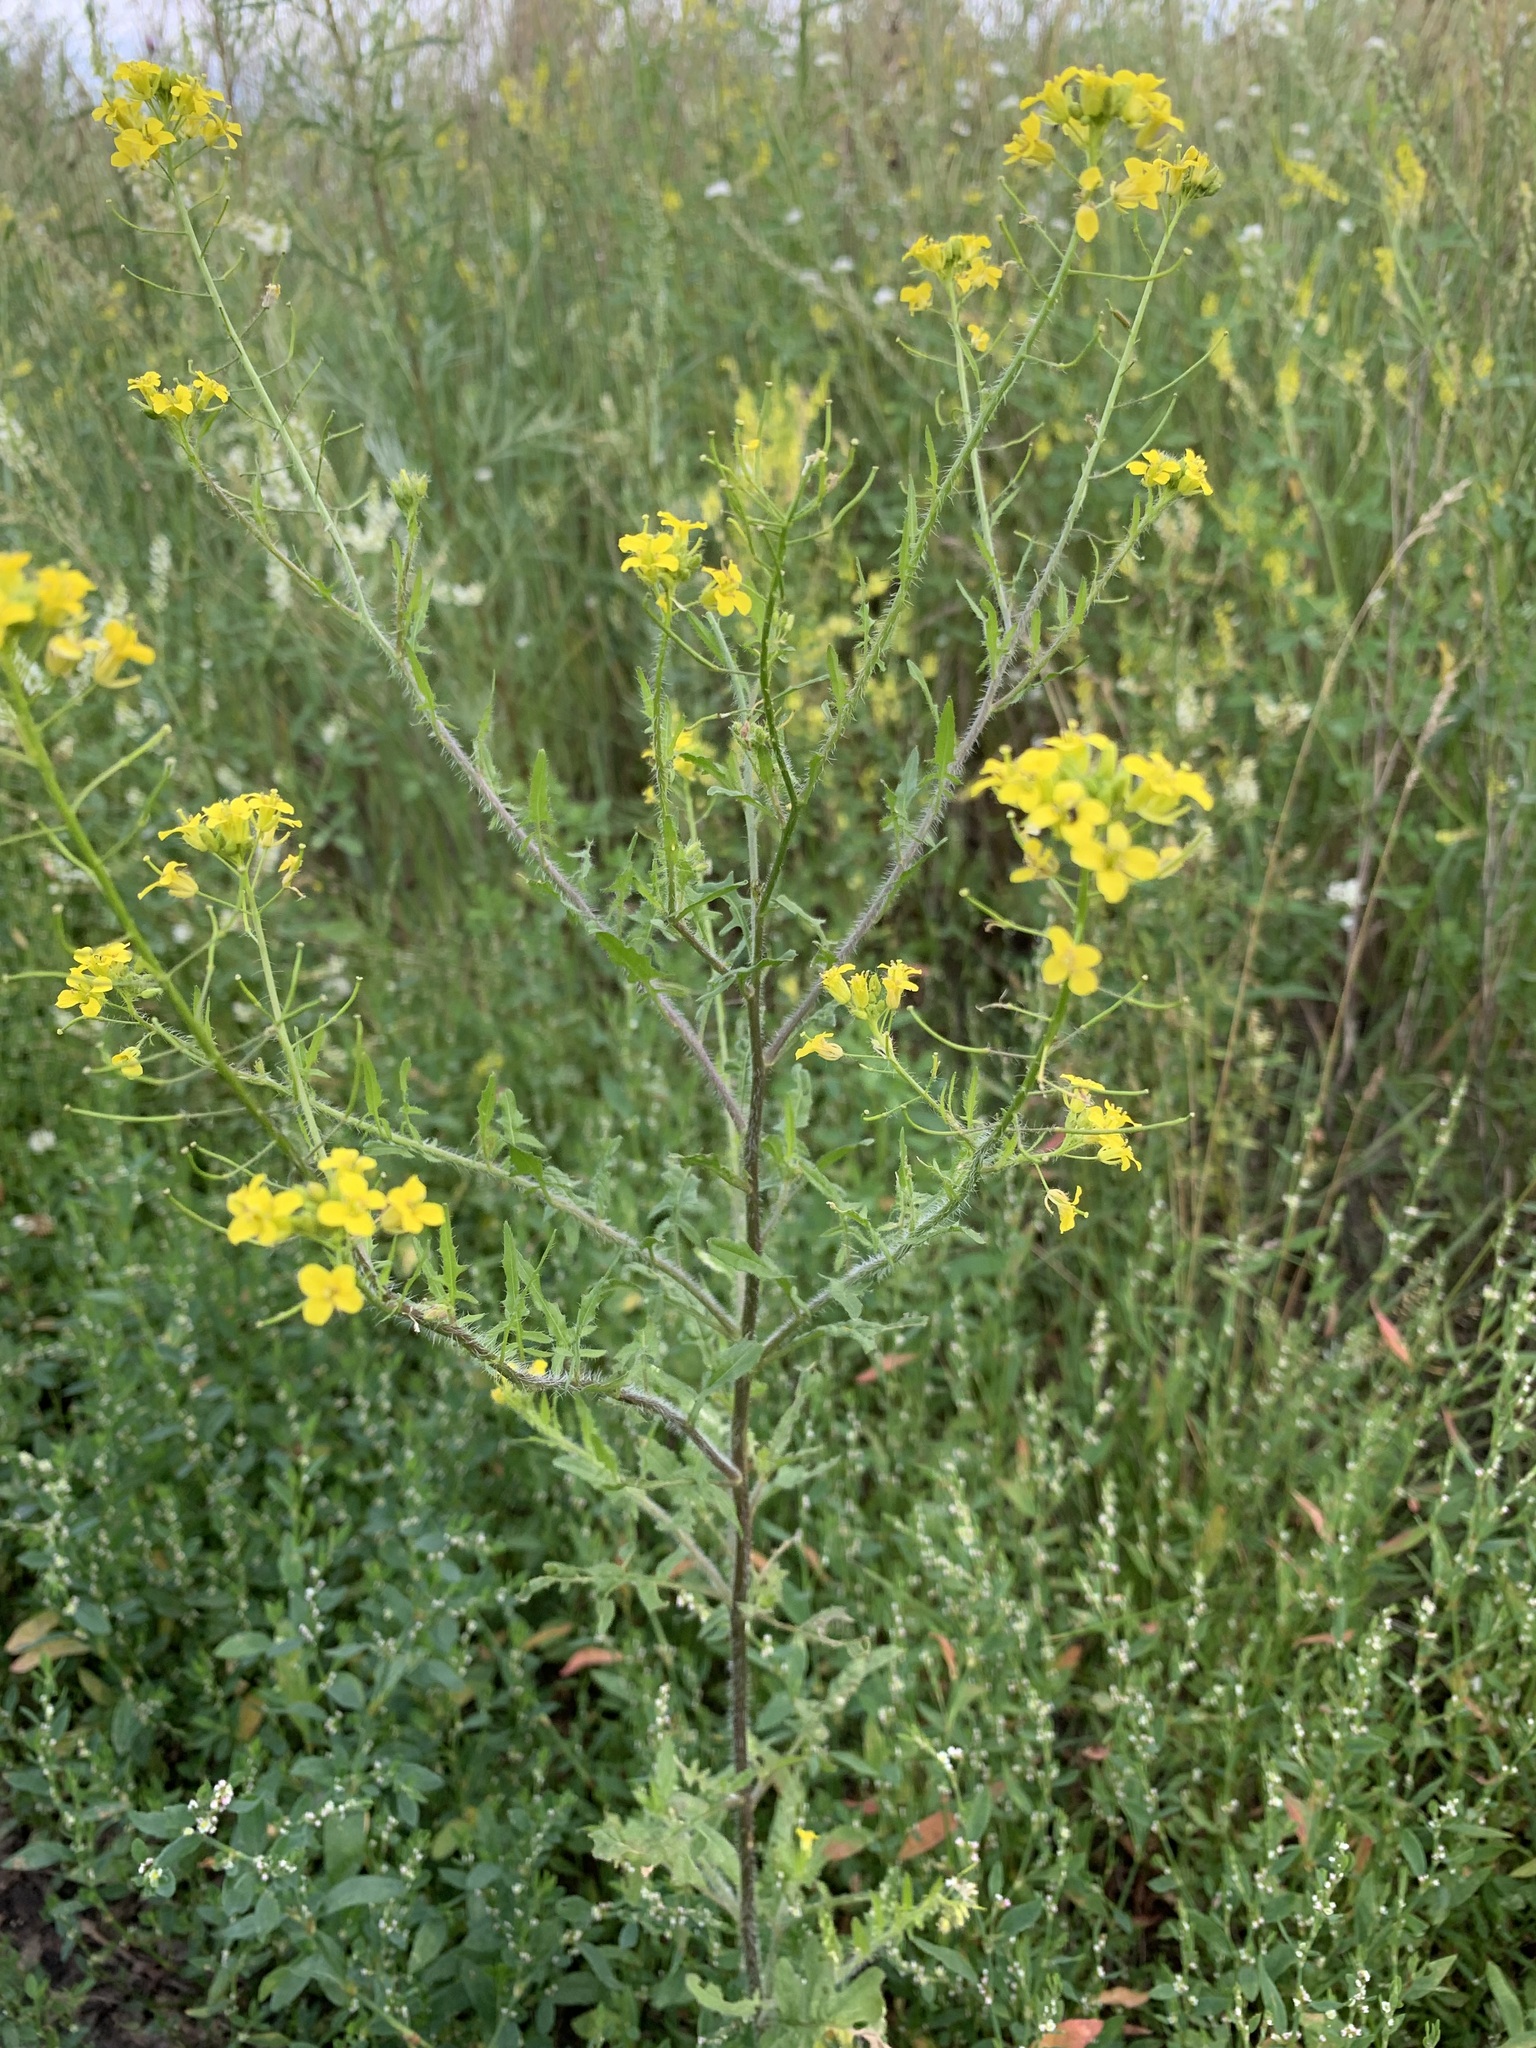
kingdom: Plantae
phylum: Tracheophyta
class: Magnoliopsida
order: Brassicales
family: Brassicaceae
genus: Sisymbrium
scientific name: Sisymbrium loeselii
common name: False london-rocket
